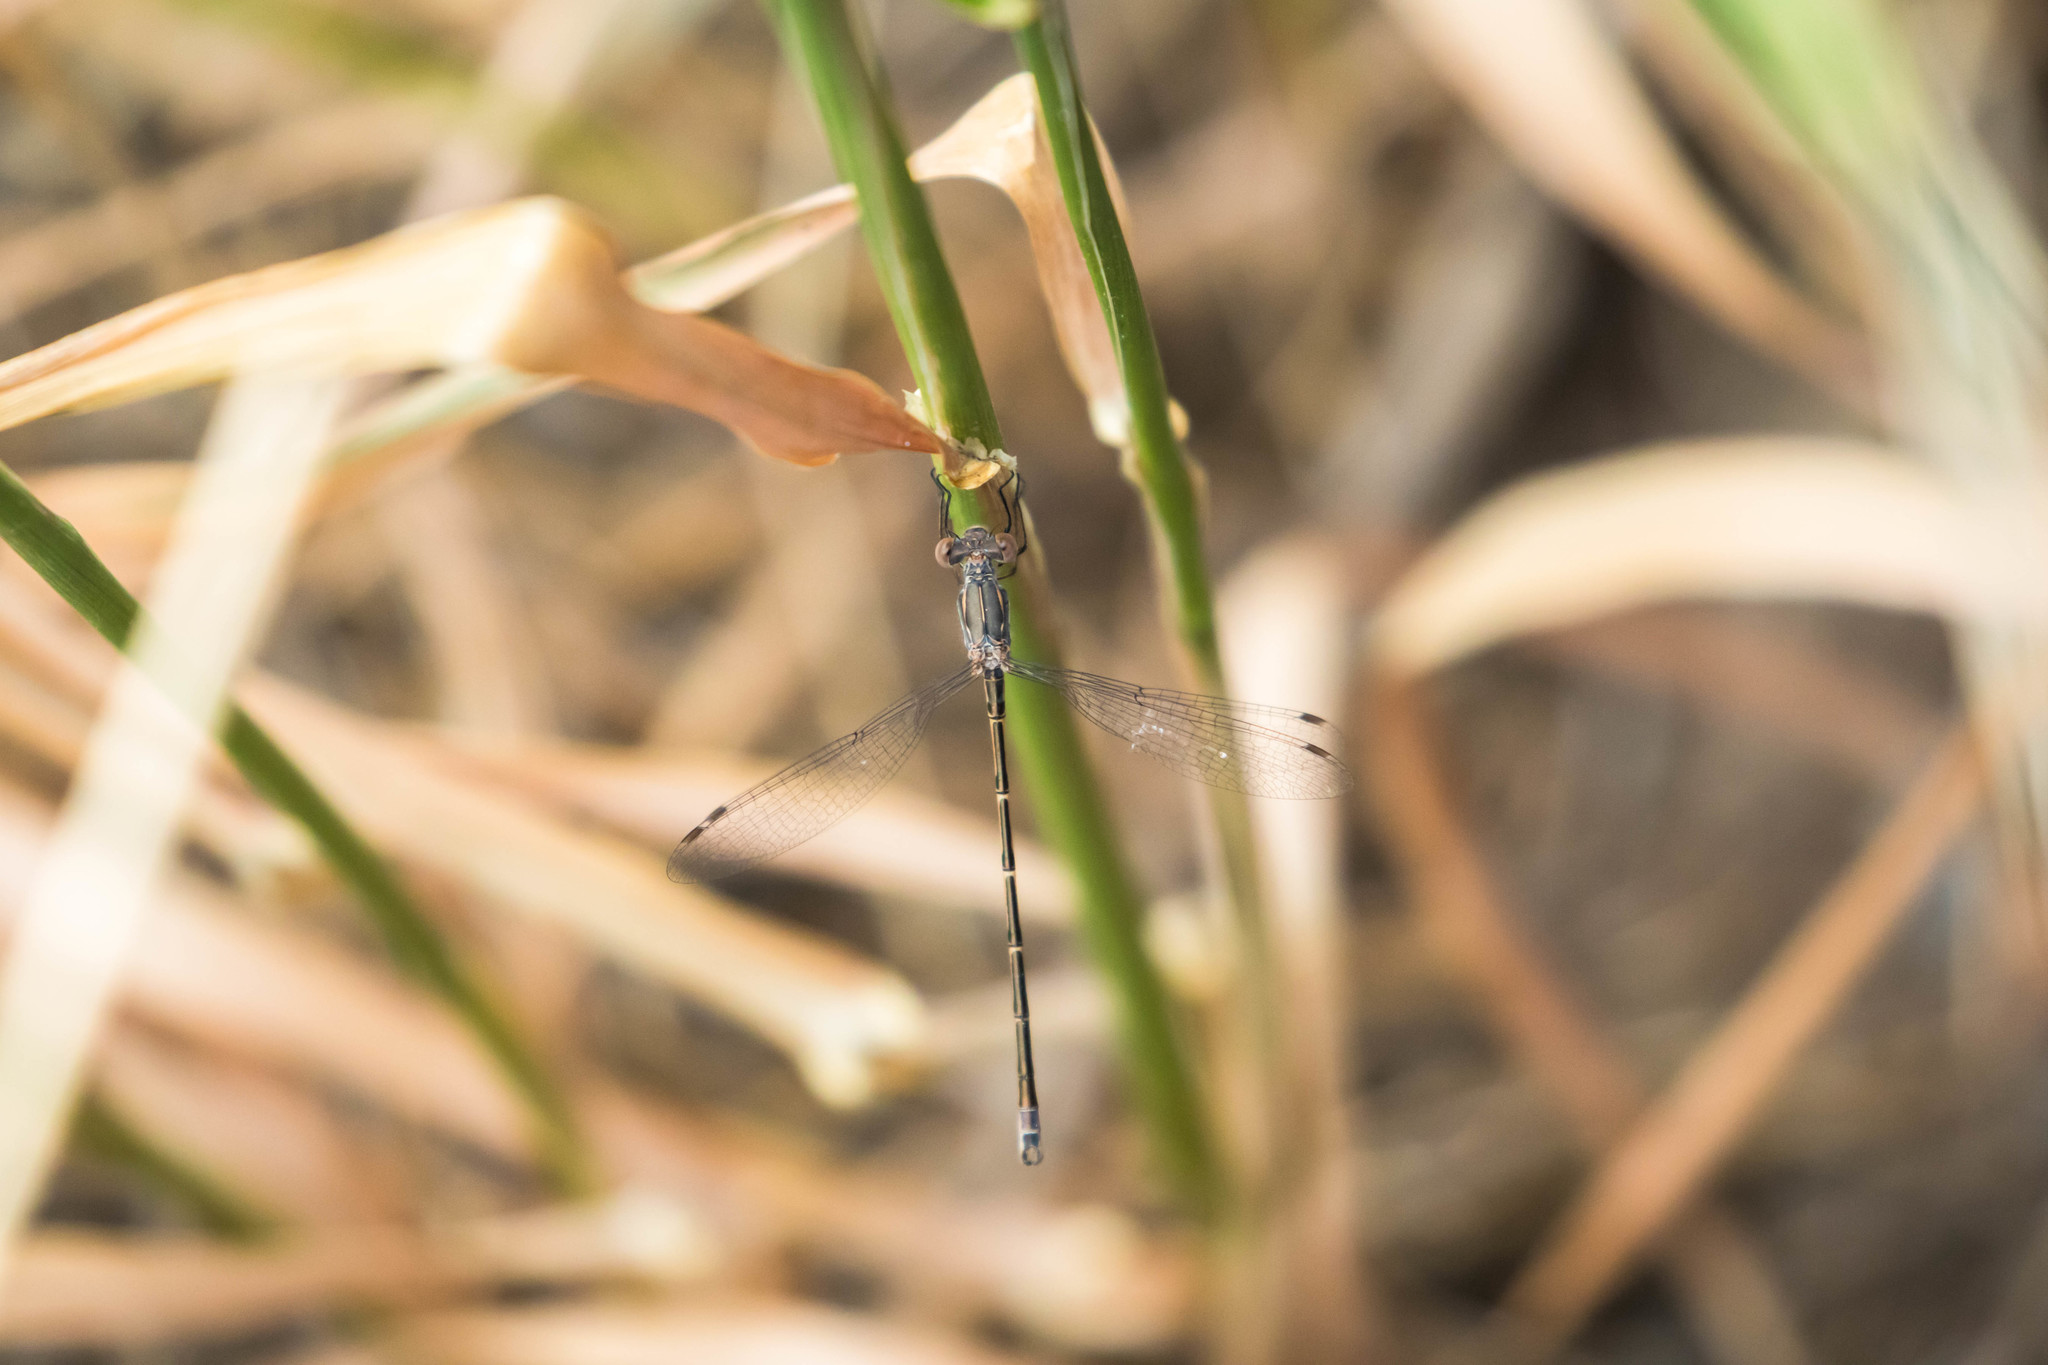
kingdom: Animalia
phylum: Arthropoda
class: Insecta
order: Odonata
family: Lestidae
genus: Lestes
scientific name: Lestes congener
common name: Spotted spreadwing
